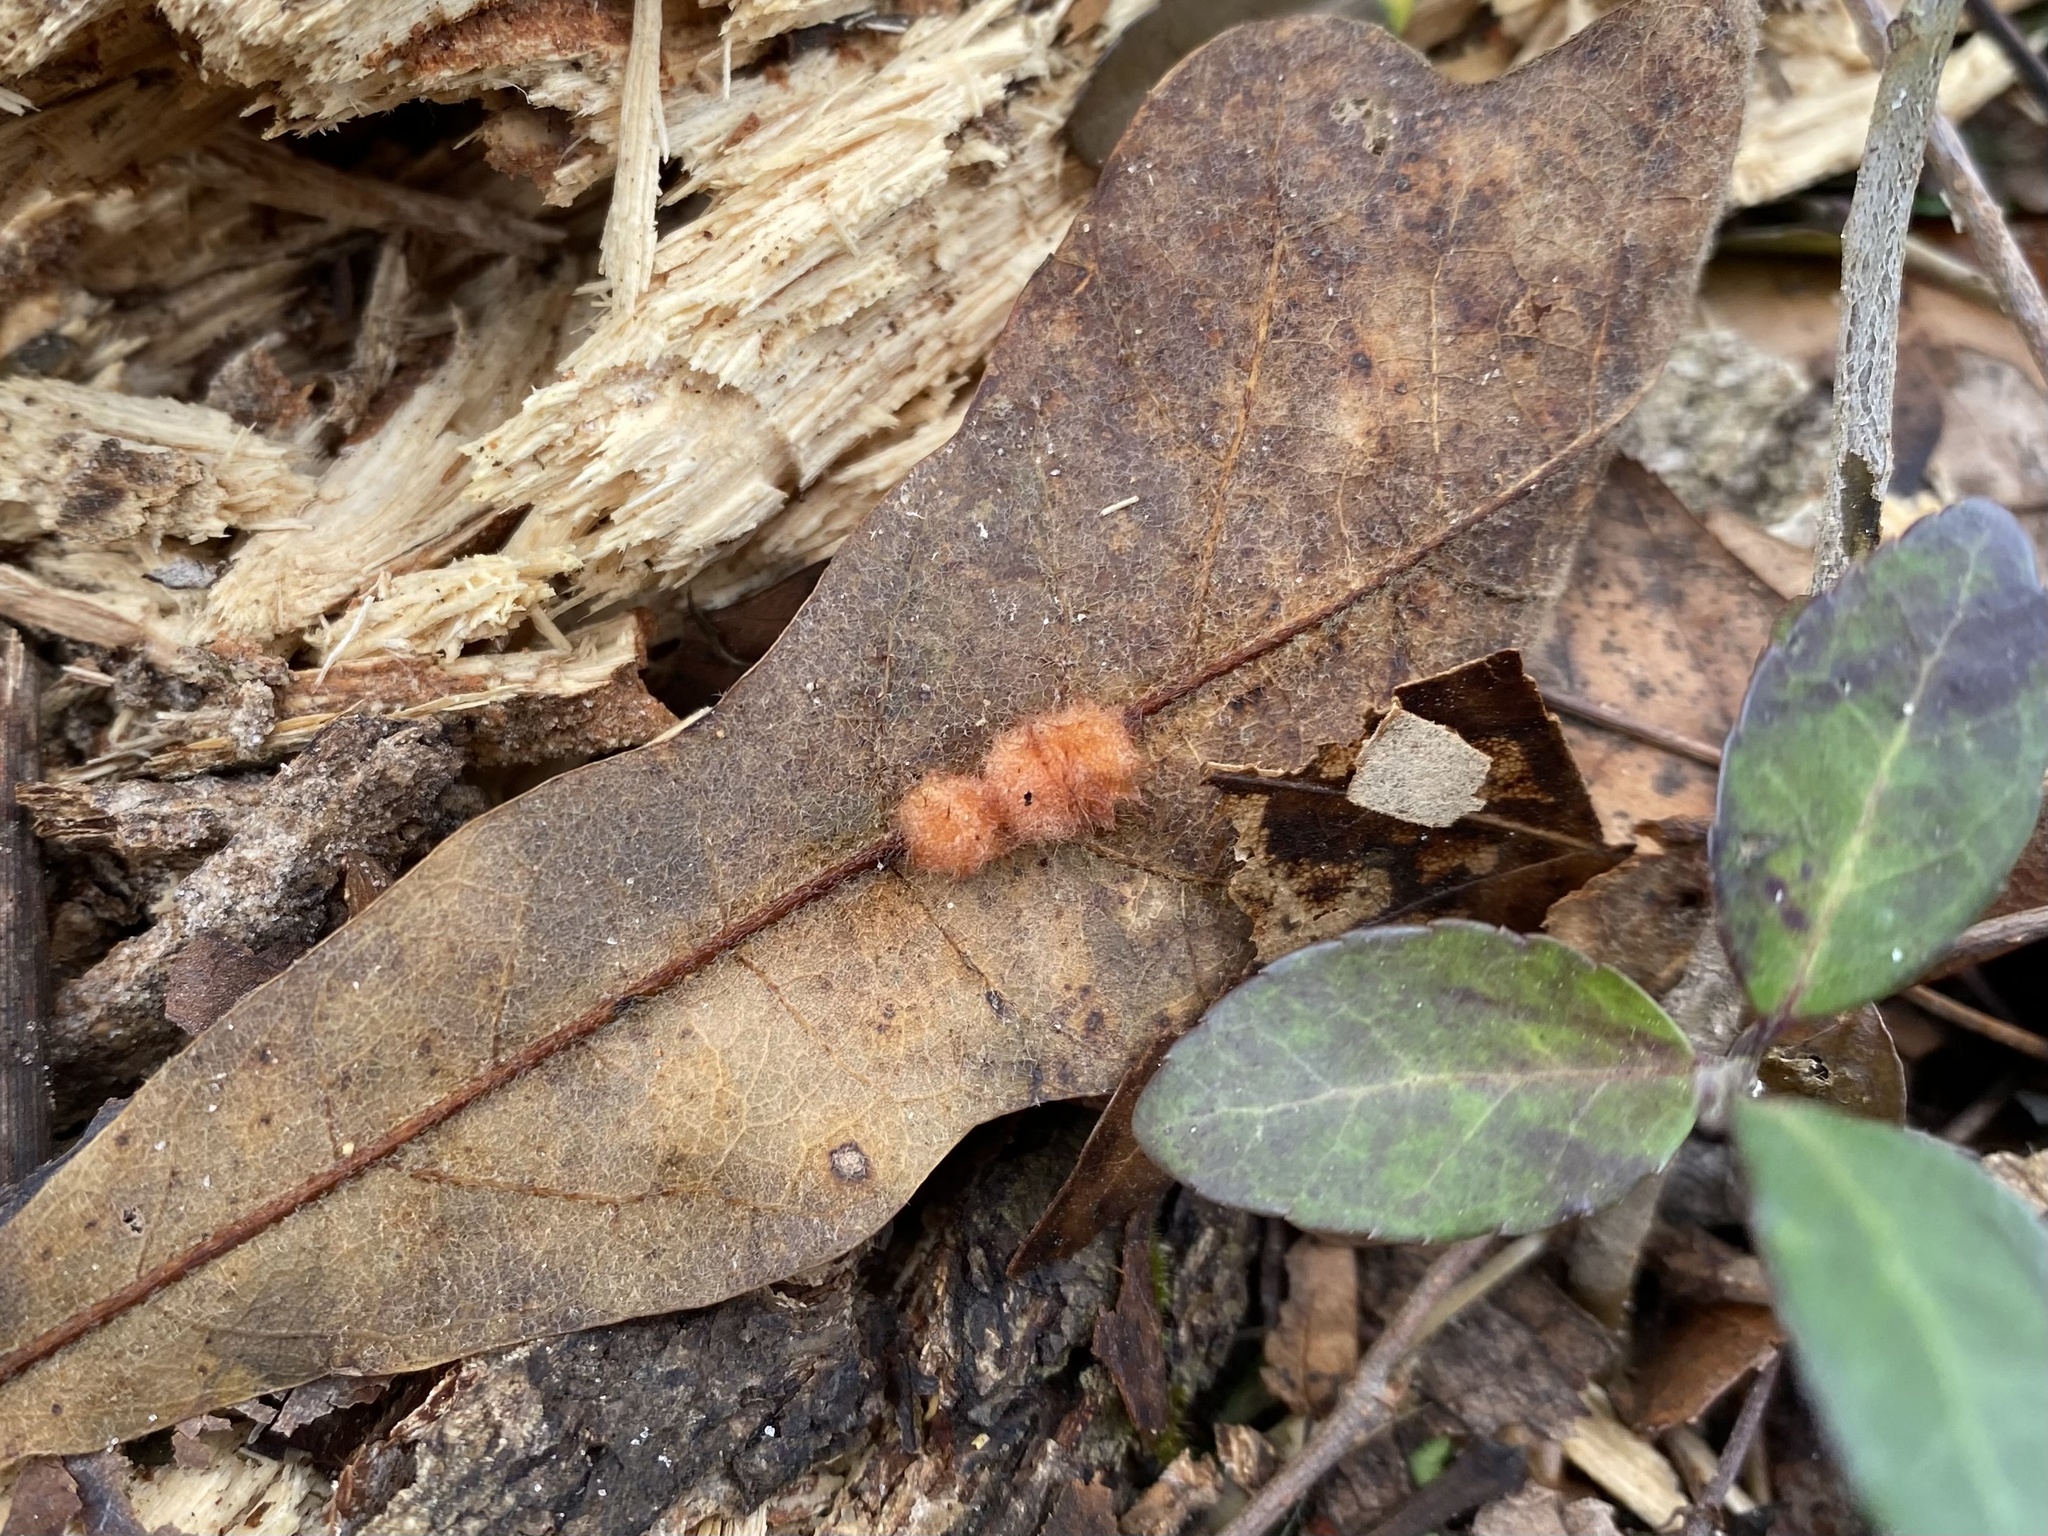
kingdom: Animalia
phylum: Arthropoda
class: Insecta
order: Hymenoptera
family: Cynipidae
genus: Andricus
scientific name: Andricus Druon pattoni
